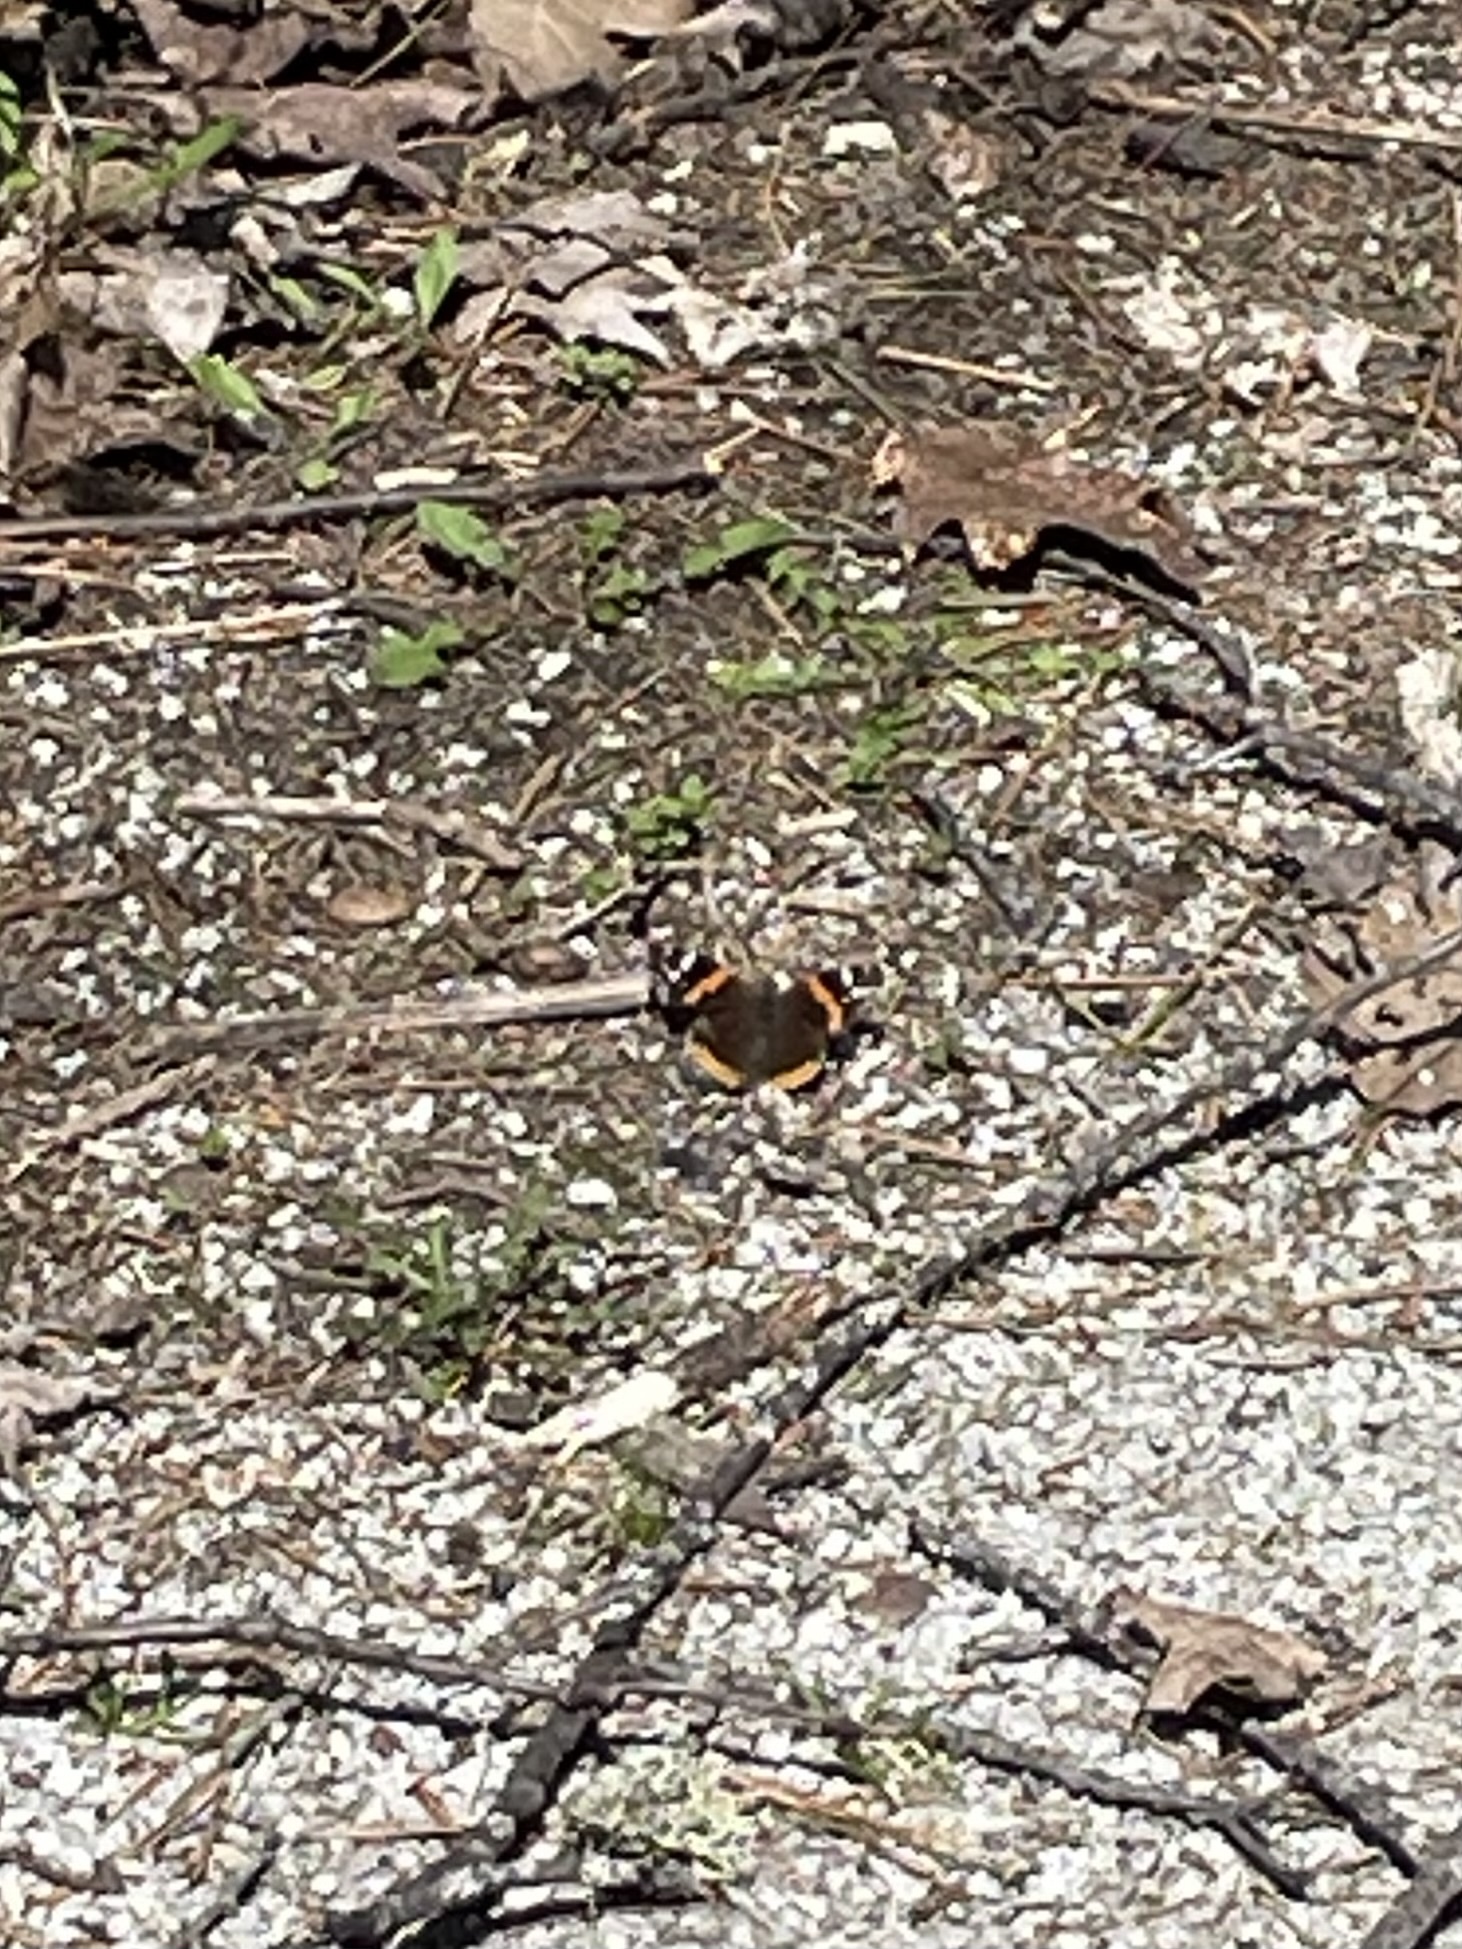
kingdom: Animalia
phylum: Arthropoda
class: Insecta
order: Lepidoptera
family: Nymphalidae
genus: Vanessa
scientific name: Vanessa atalanta
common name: Red admiral
